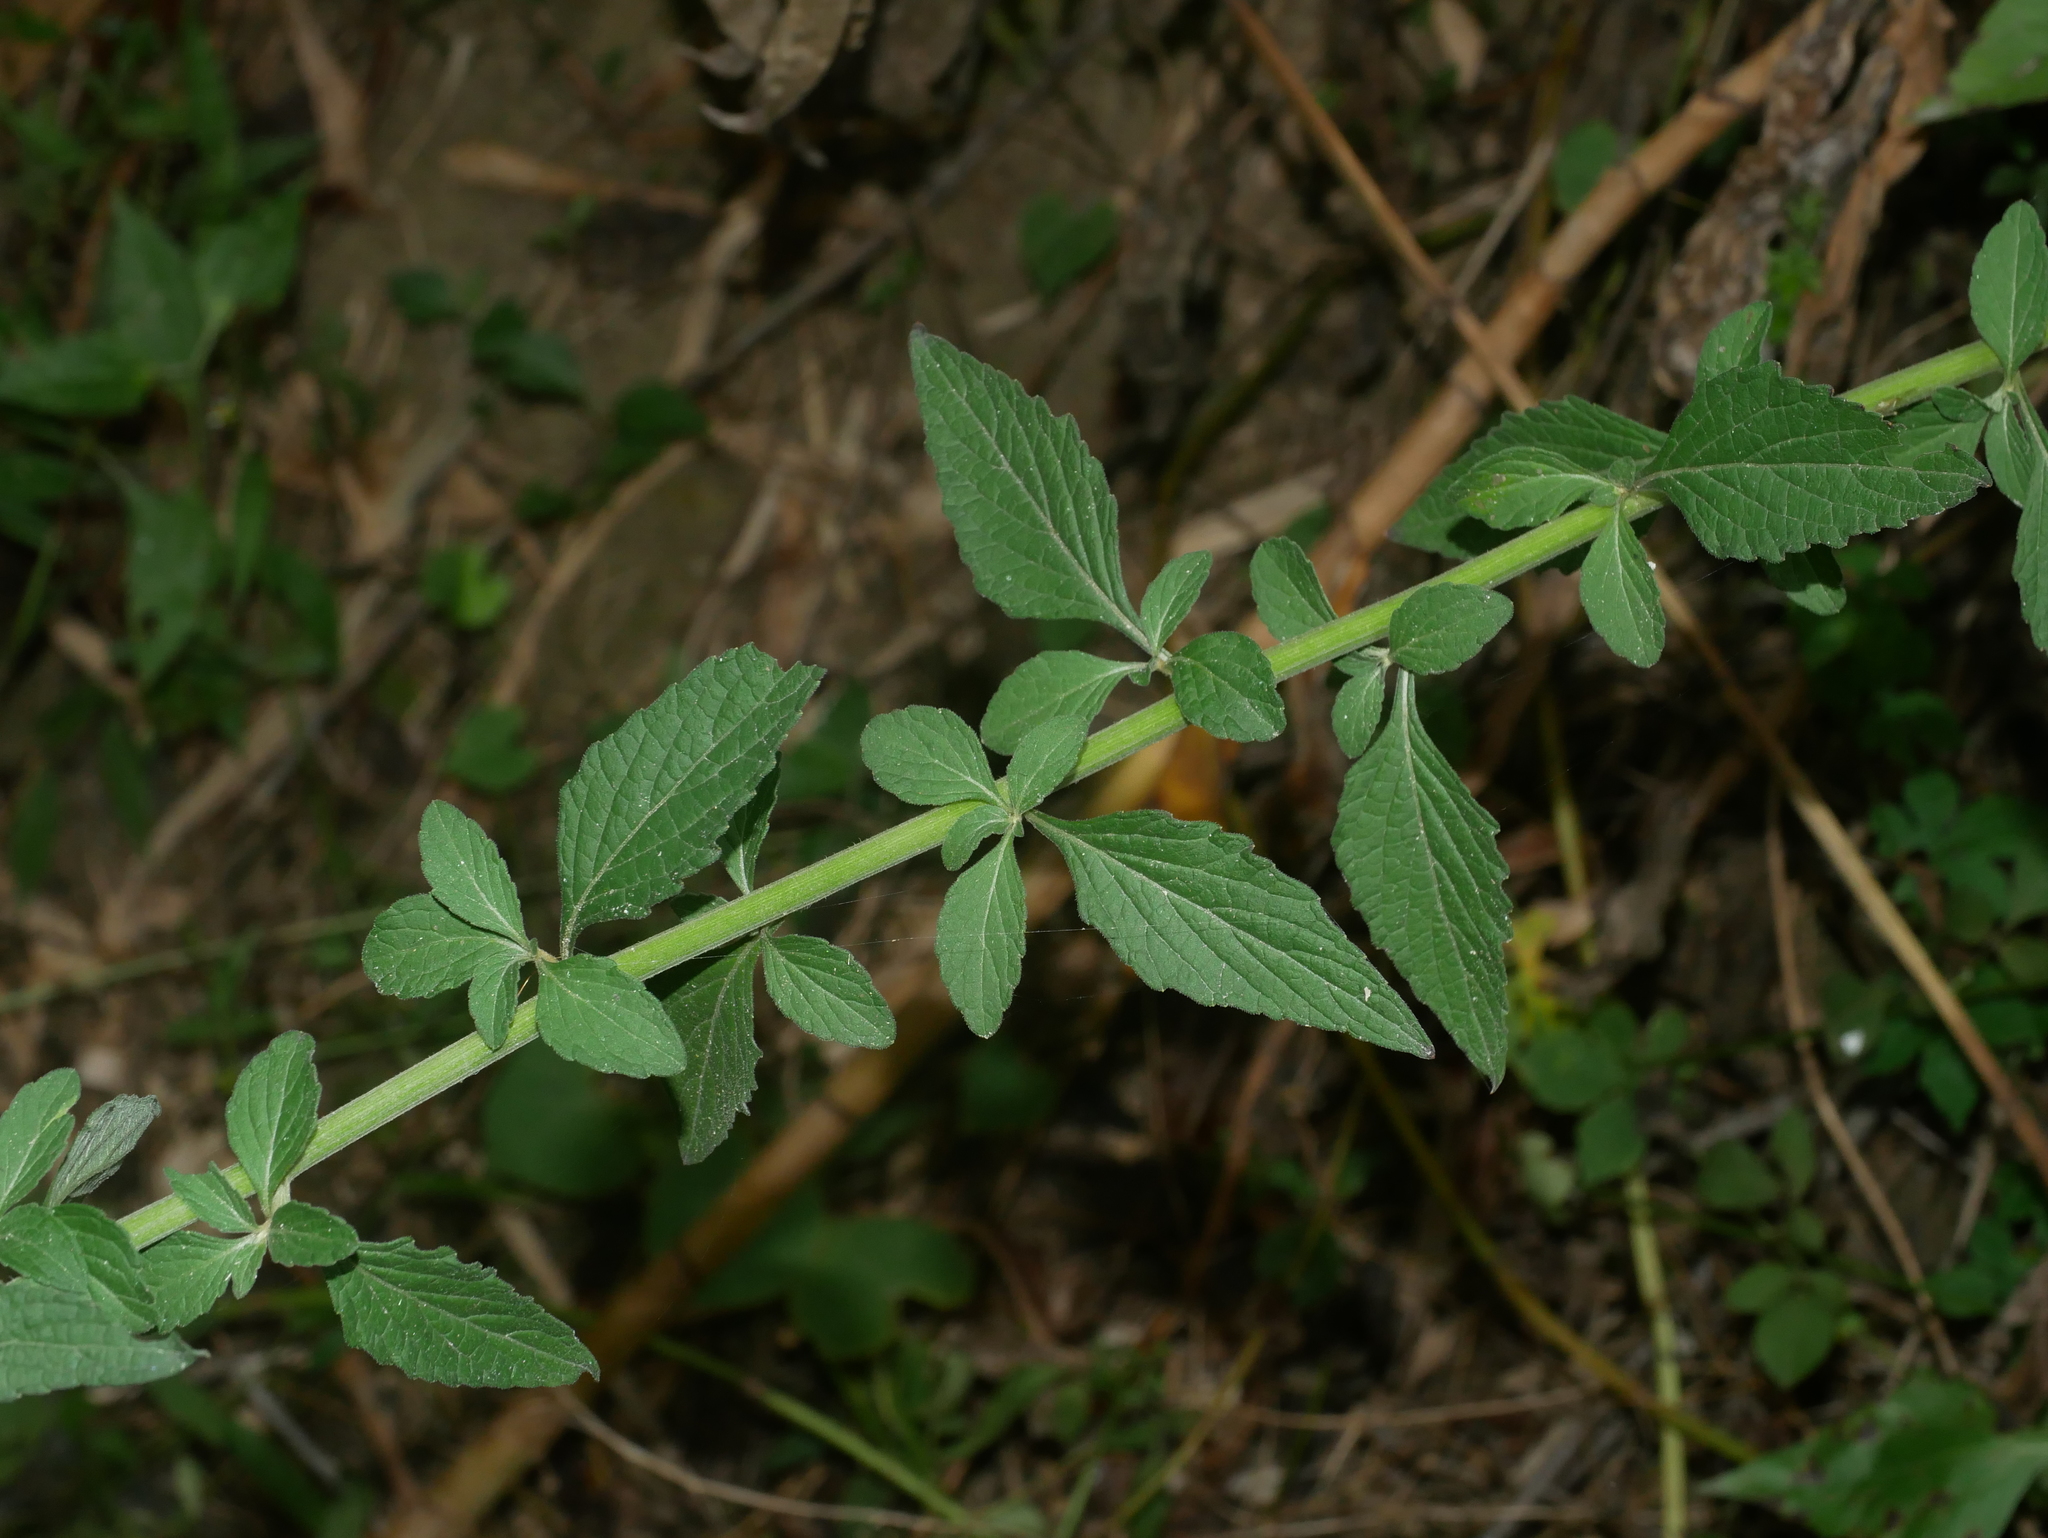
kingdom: Plantae
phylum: Tracheophyta
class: Magnoliopsida
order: Asterales
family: Asteraceae
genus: Cyanthillium
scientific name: Cyanthillium cinereum
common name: Little ironweed
